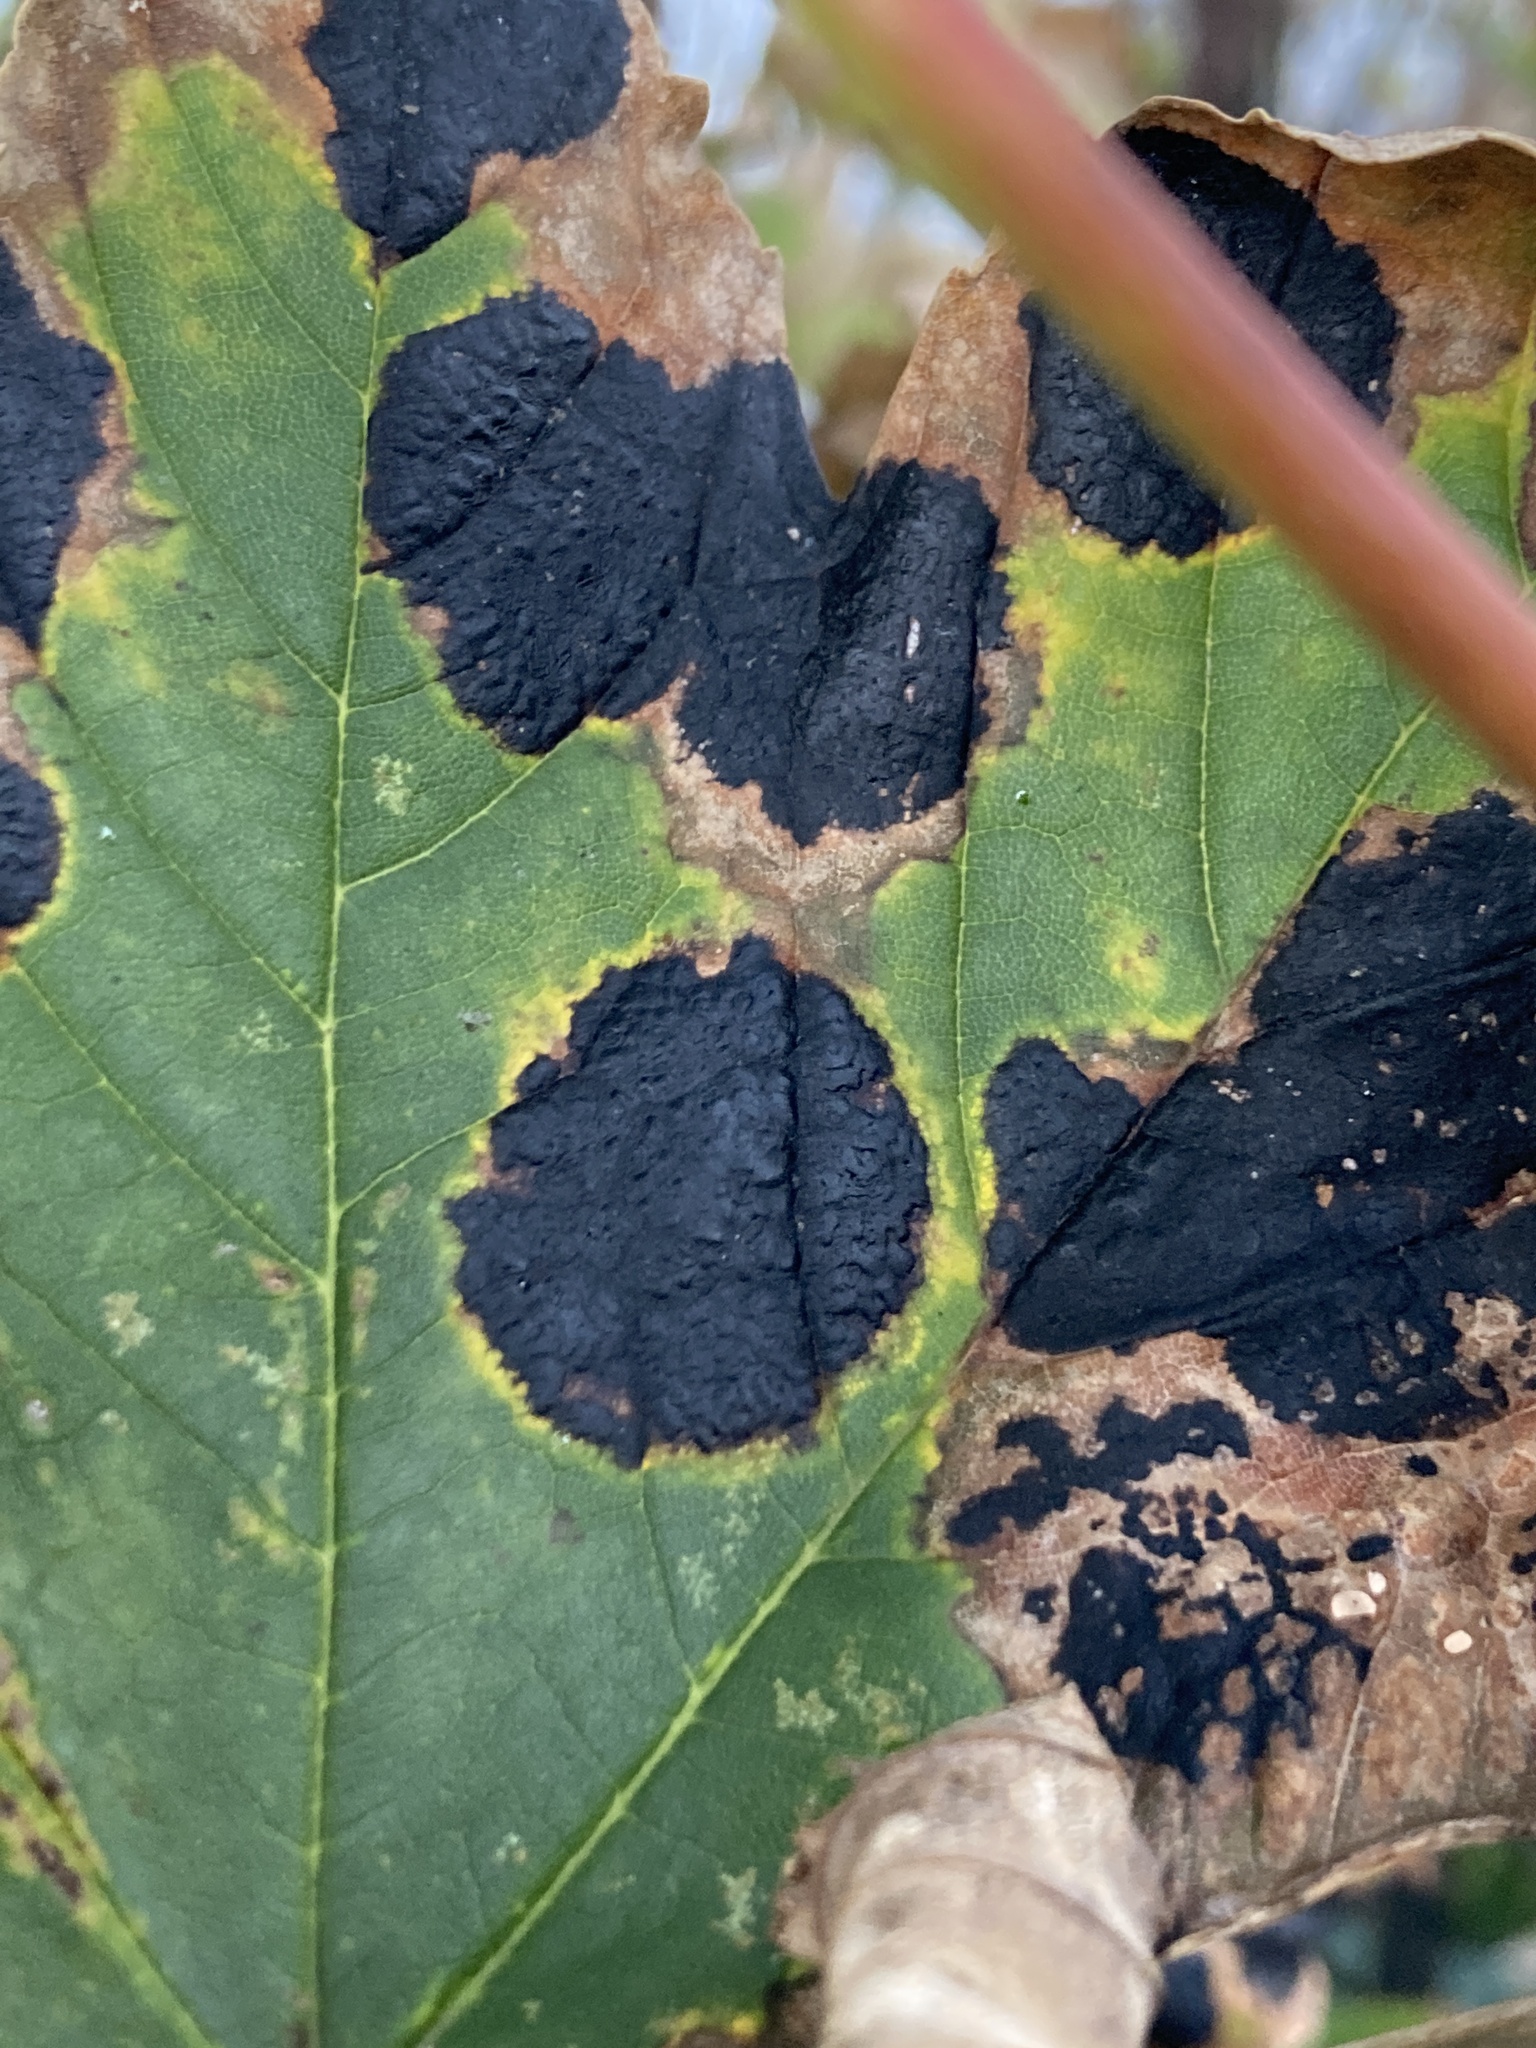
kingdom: Fungi
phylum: Ascomycota
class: Leotiomycetes
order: Rhytismatales
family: Rhytismataceae
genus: Rhytisma
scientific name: Rhytisma acerinum
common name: European tar spot
